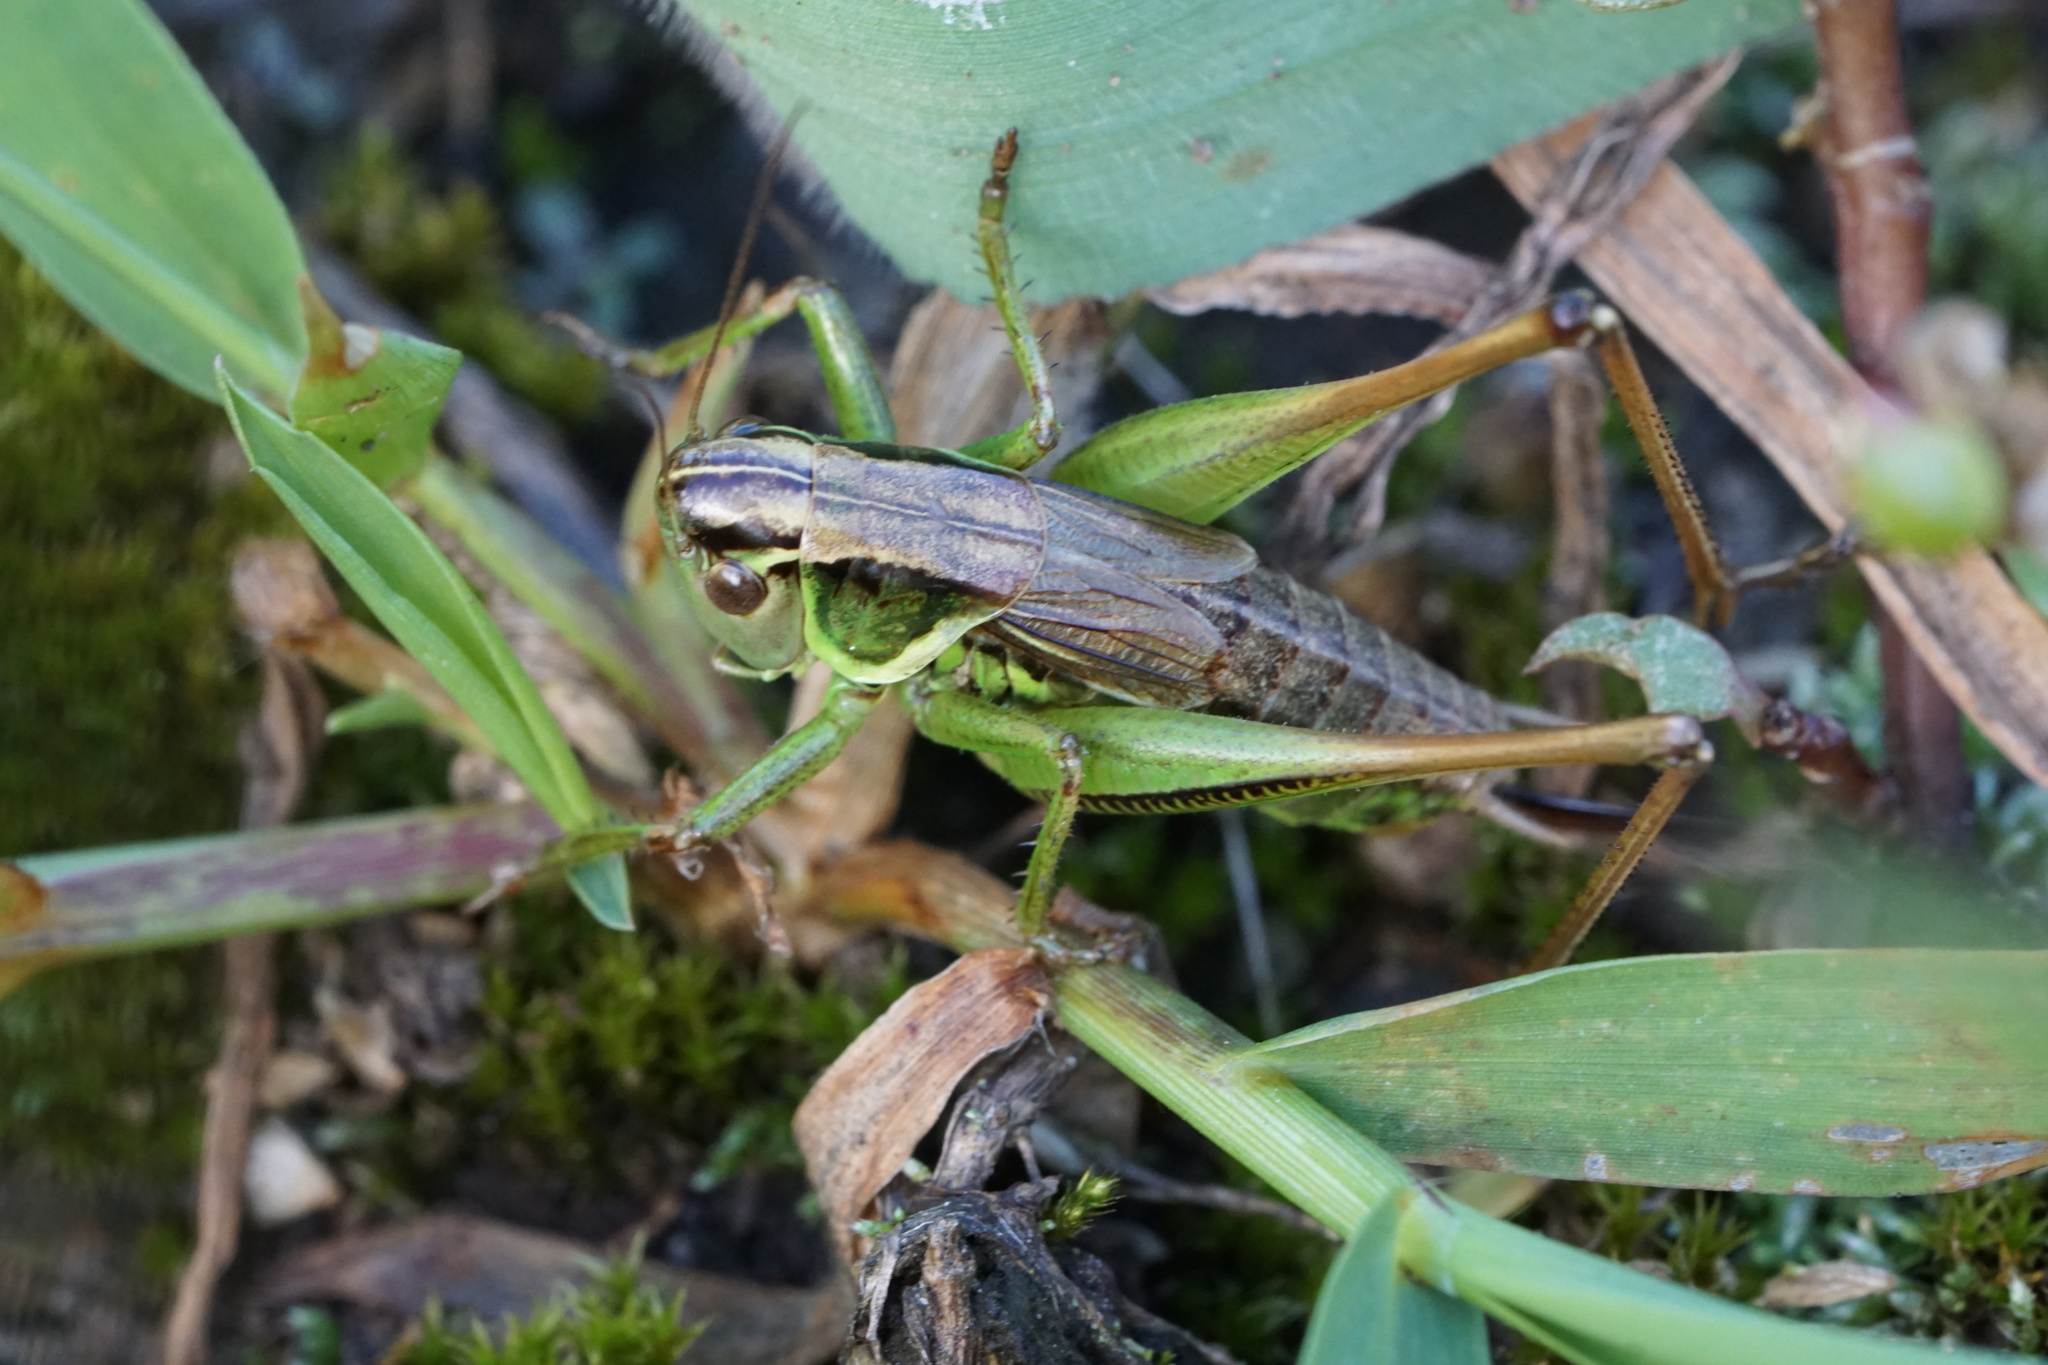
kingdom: Animalia
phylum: Arthropoda
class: Insecta
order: Orthoptera
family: Tettigoniidae
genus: Roeseliana
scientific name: Roeseliana roeselii
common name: Roesel's bush cricket
